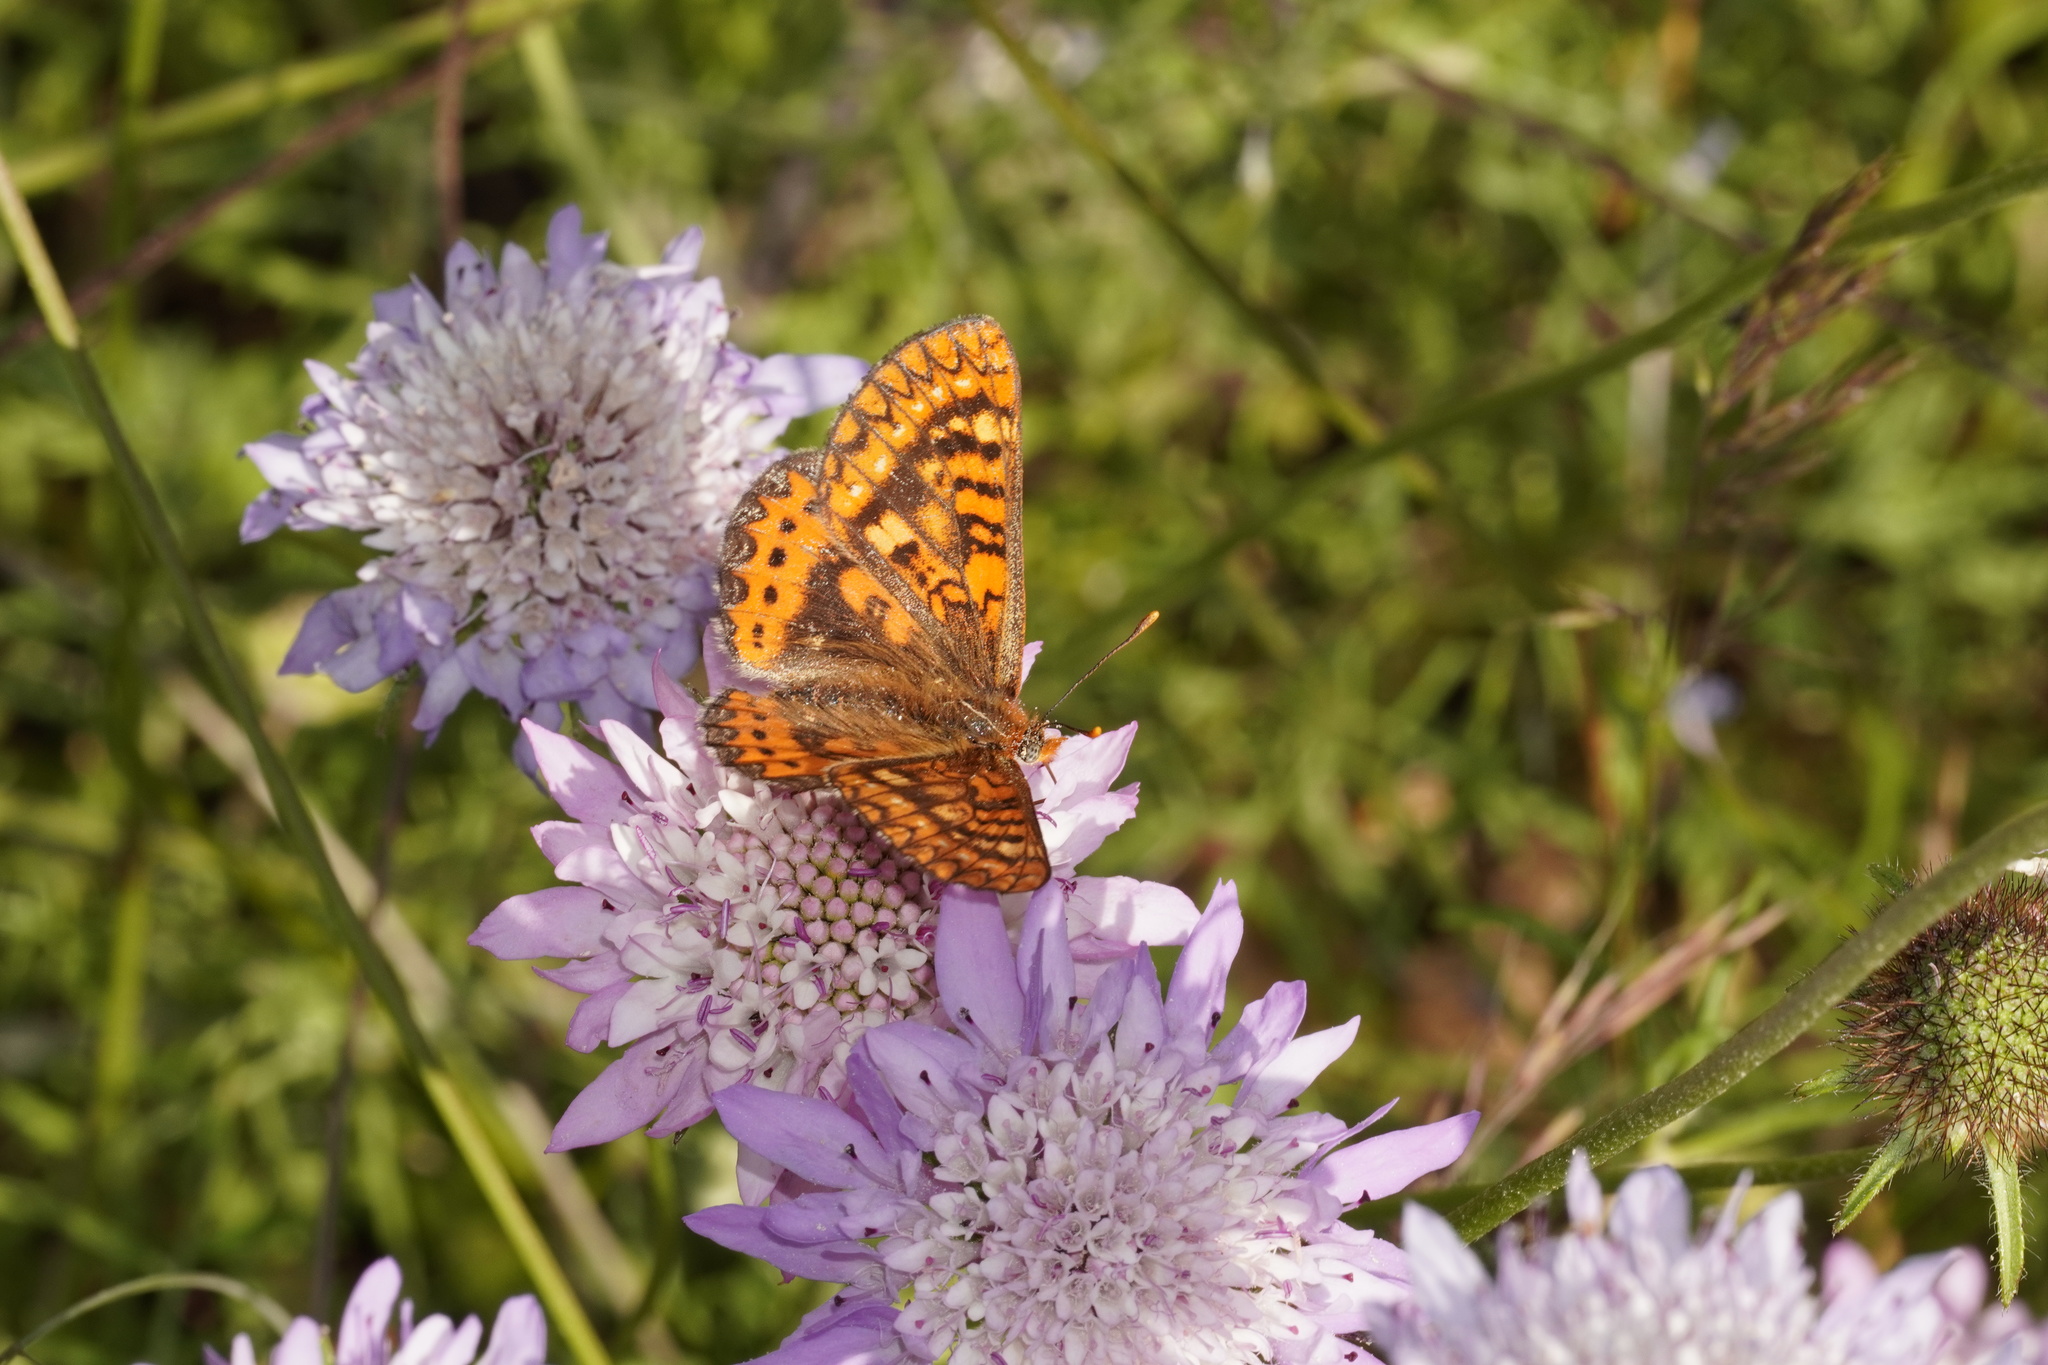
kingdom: Animalia
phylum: Arthropoda
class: Insecta
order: Lepidoptera
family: Nymphalidae
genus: Euphydryas
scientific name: Euphydryas aurinia
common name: Marsh fritillary
